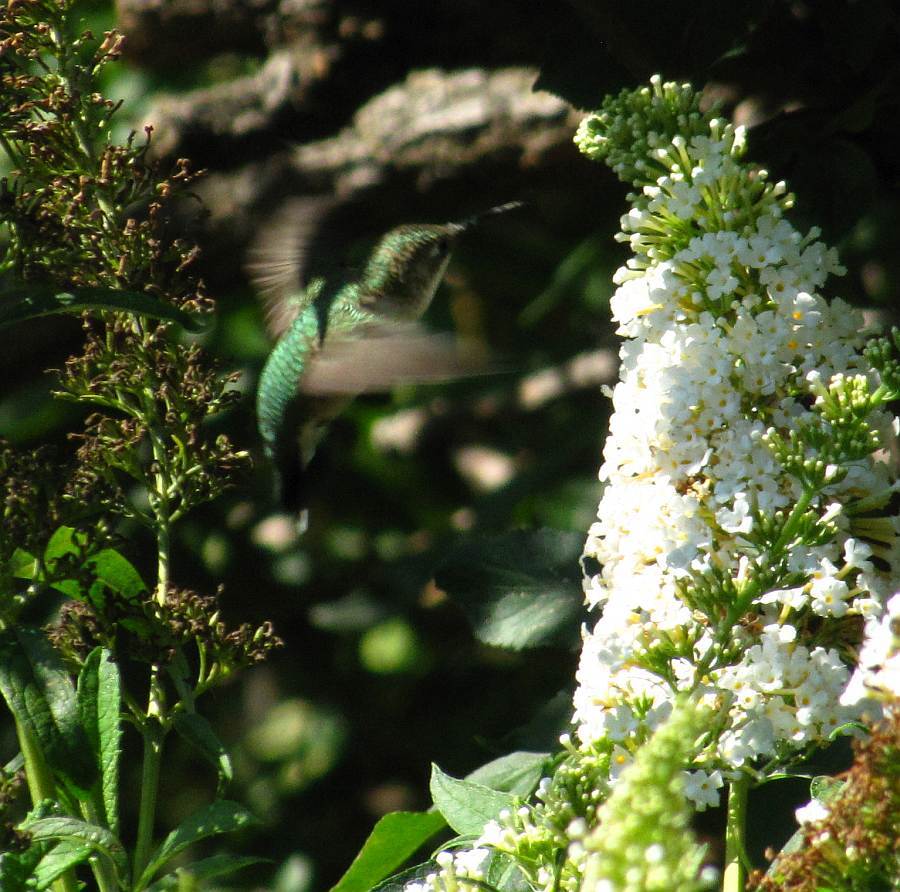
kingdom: Animalia
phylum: Chordata
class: Aves
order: Apodiformes
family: Trochilidae
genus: Archilochus
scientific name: Archilochus colubris
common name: Ruby-throated hummingbird
